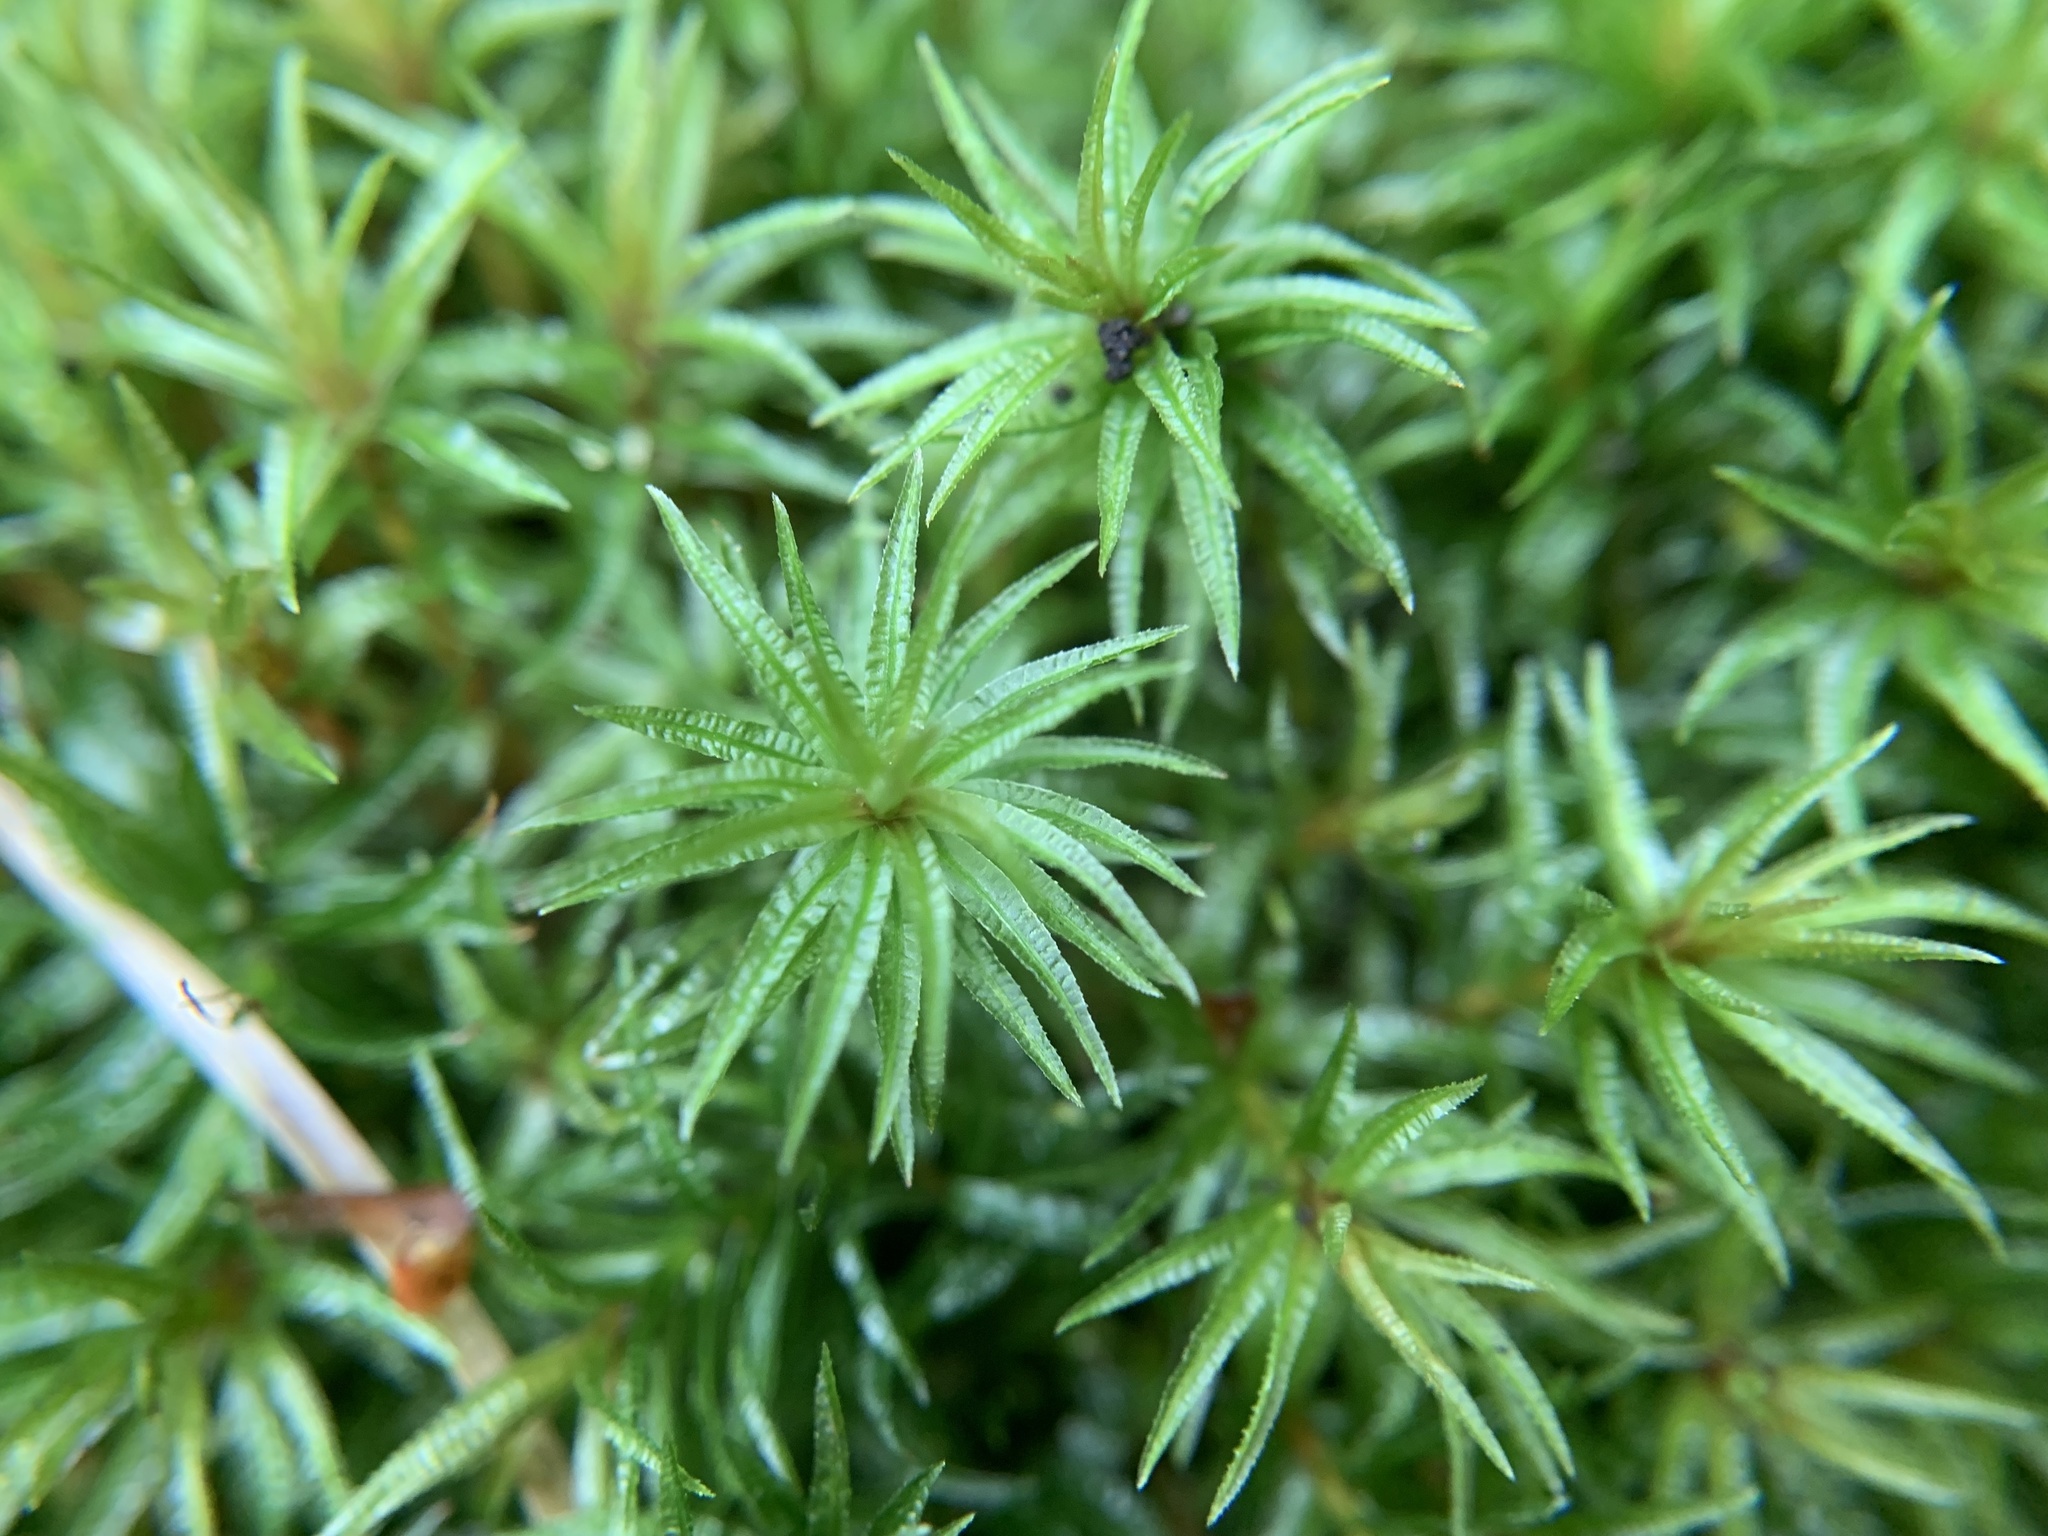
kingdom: Plantae
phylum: Bryophyta
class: Polytrichopsida
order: Polytrichales
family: Polytrichaceae
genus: Atrichum
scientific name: Atrichum undulatum
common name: Common smoothcap
